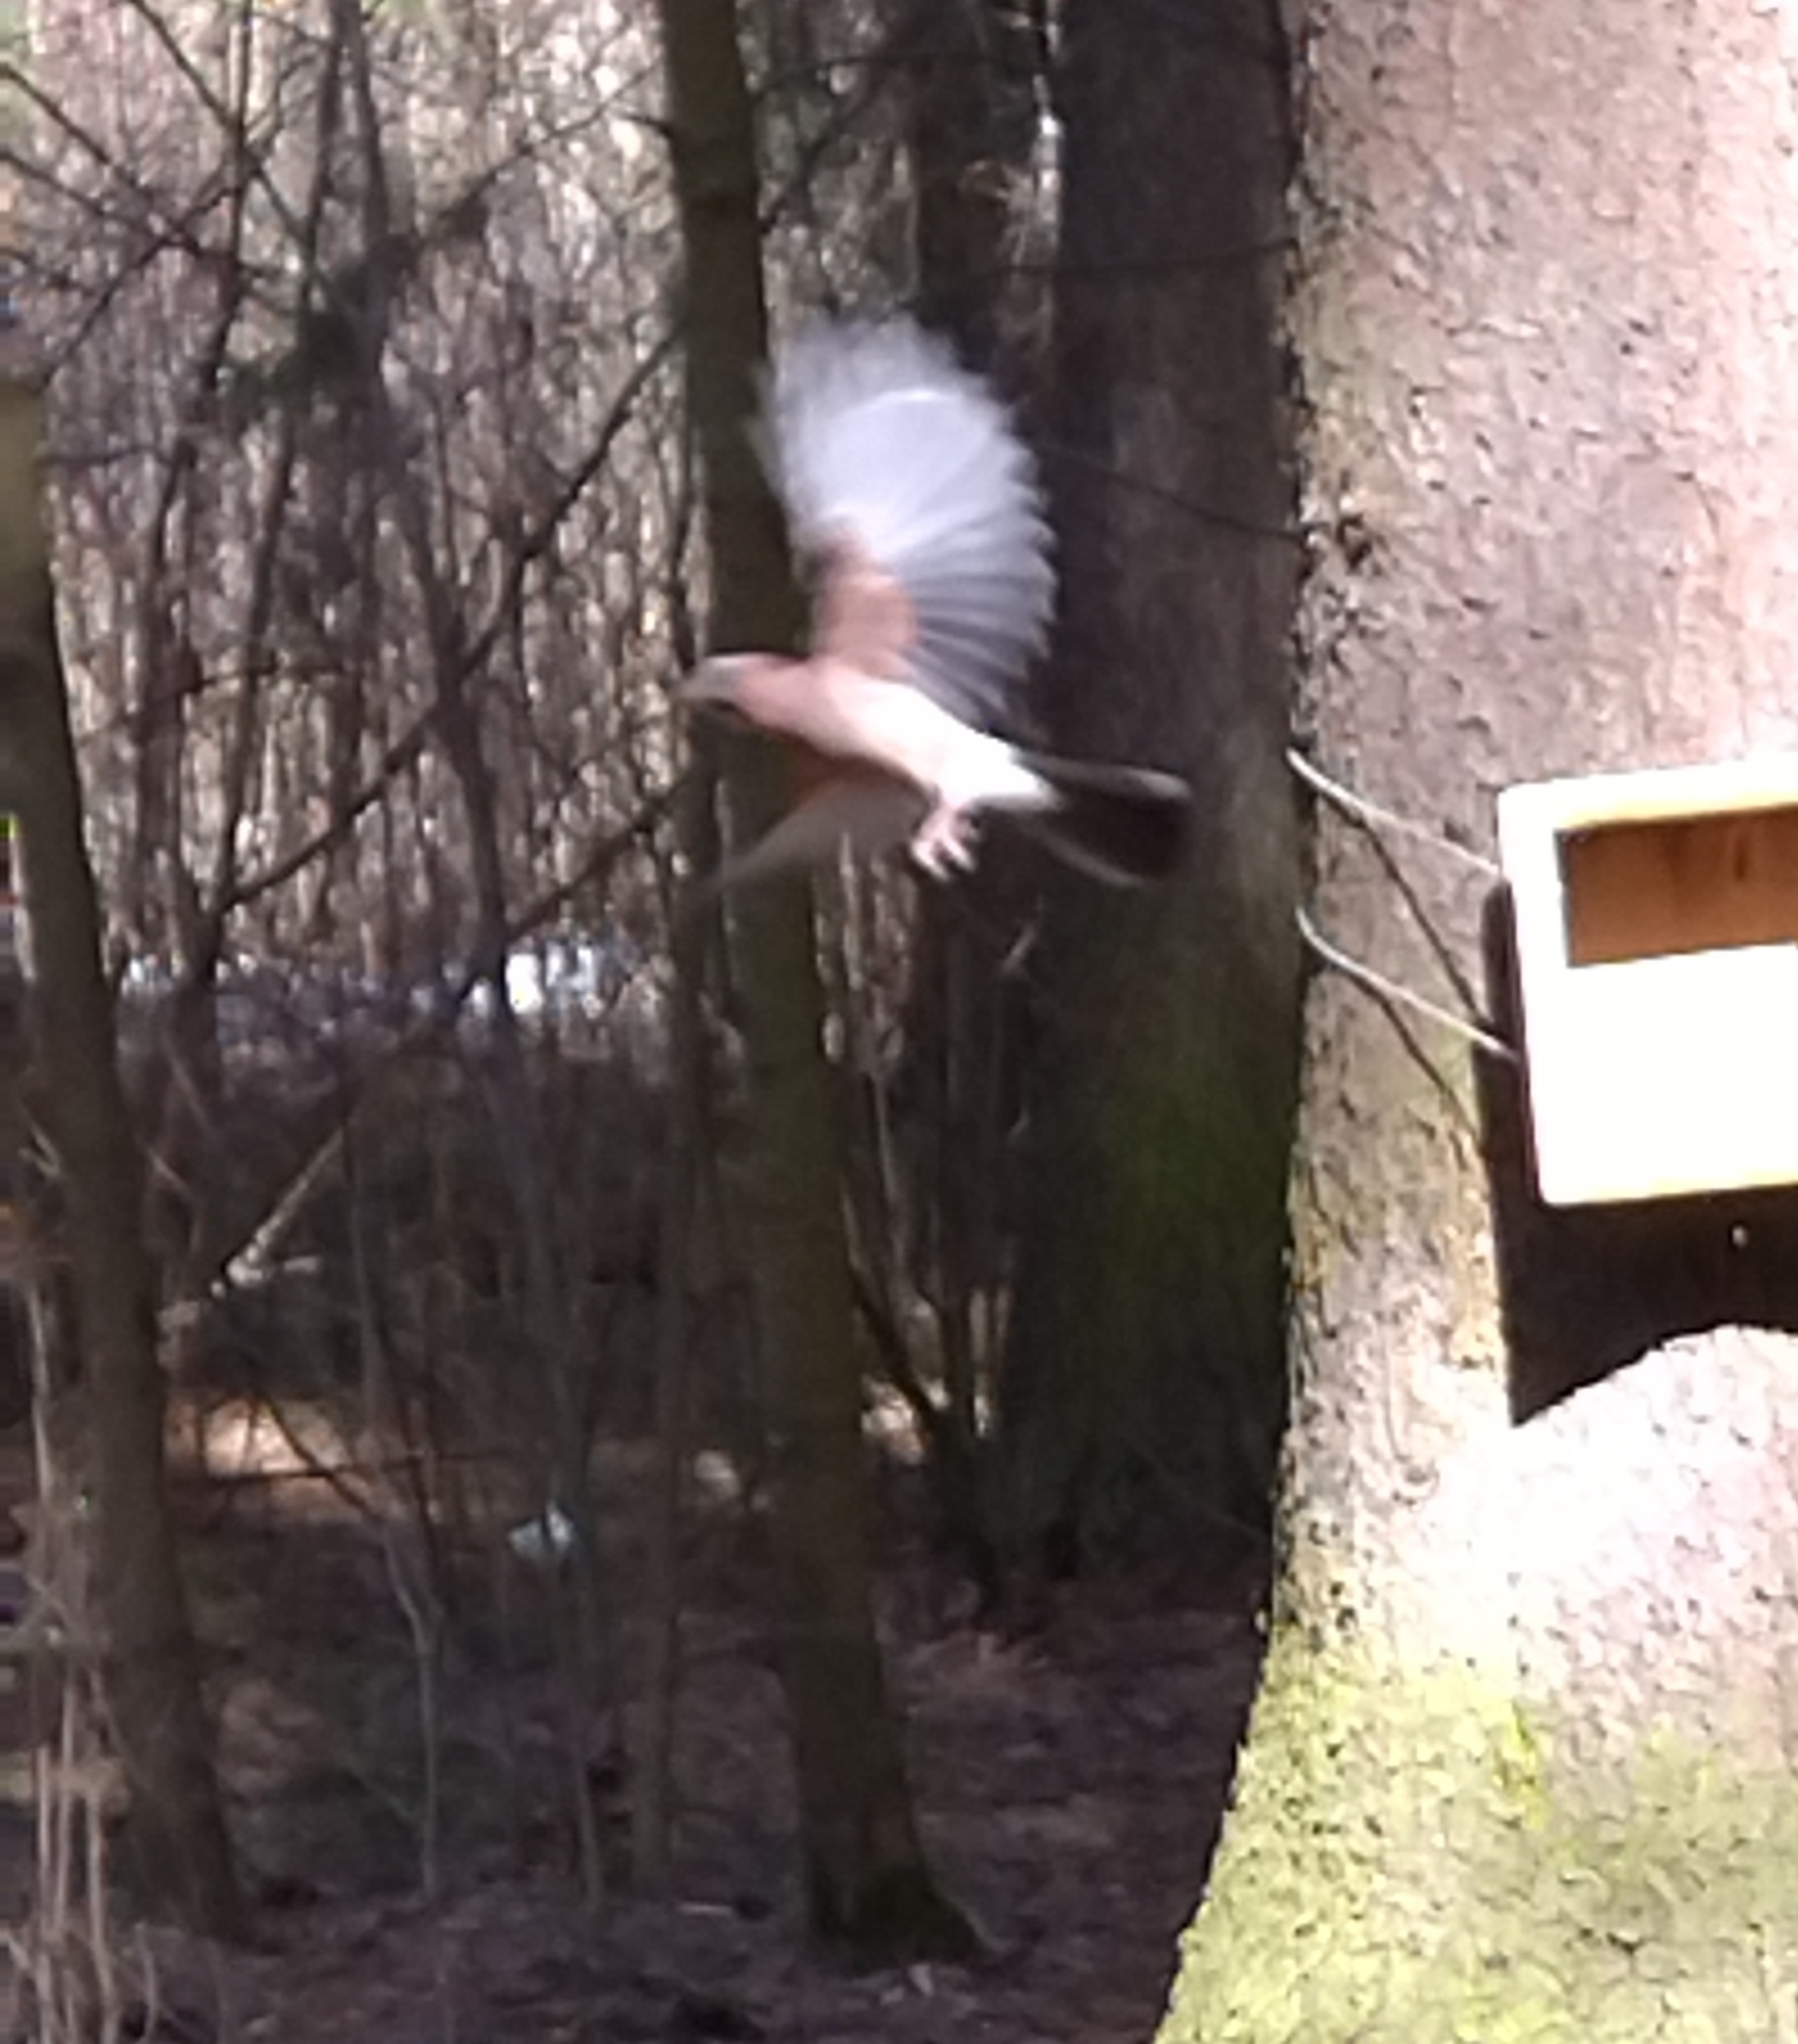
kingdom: Animalia
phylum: Chordata
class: Aves
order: Passeriformes
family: Corvidae
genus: Garrulus
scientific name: Garrulus glandarius
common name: Eurasian jay
